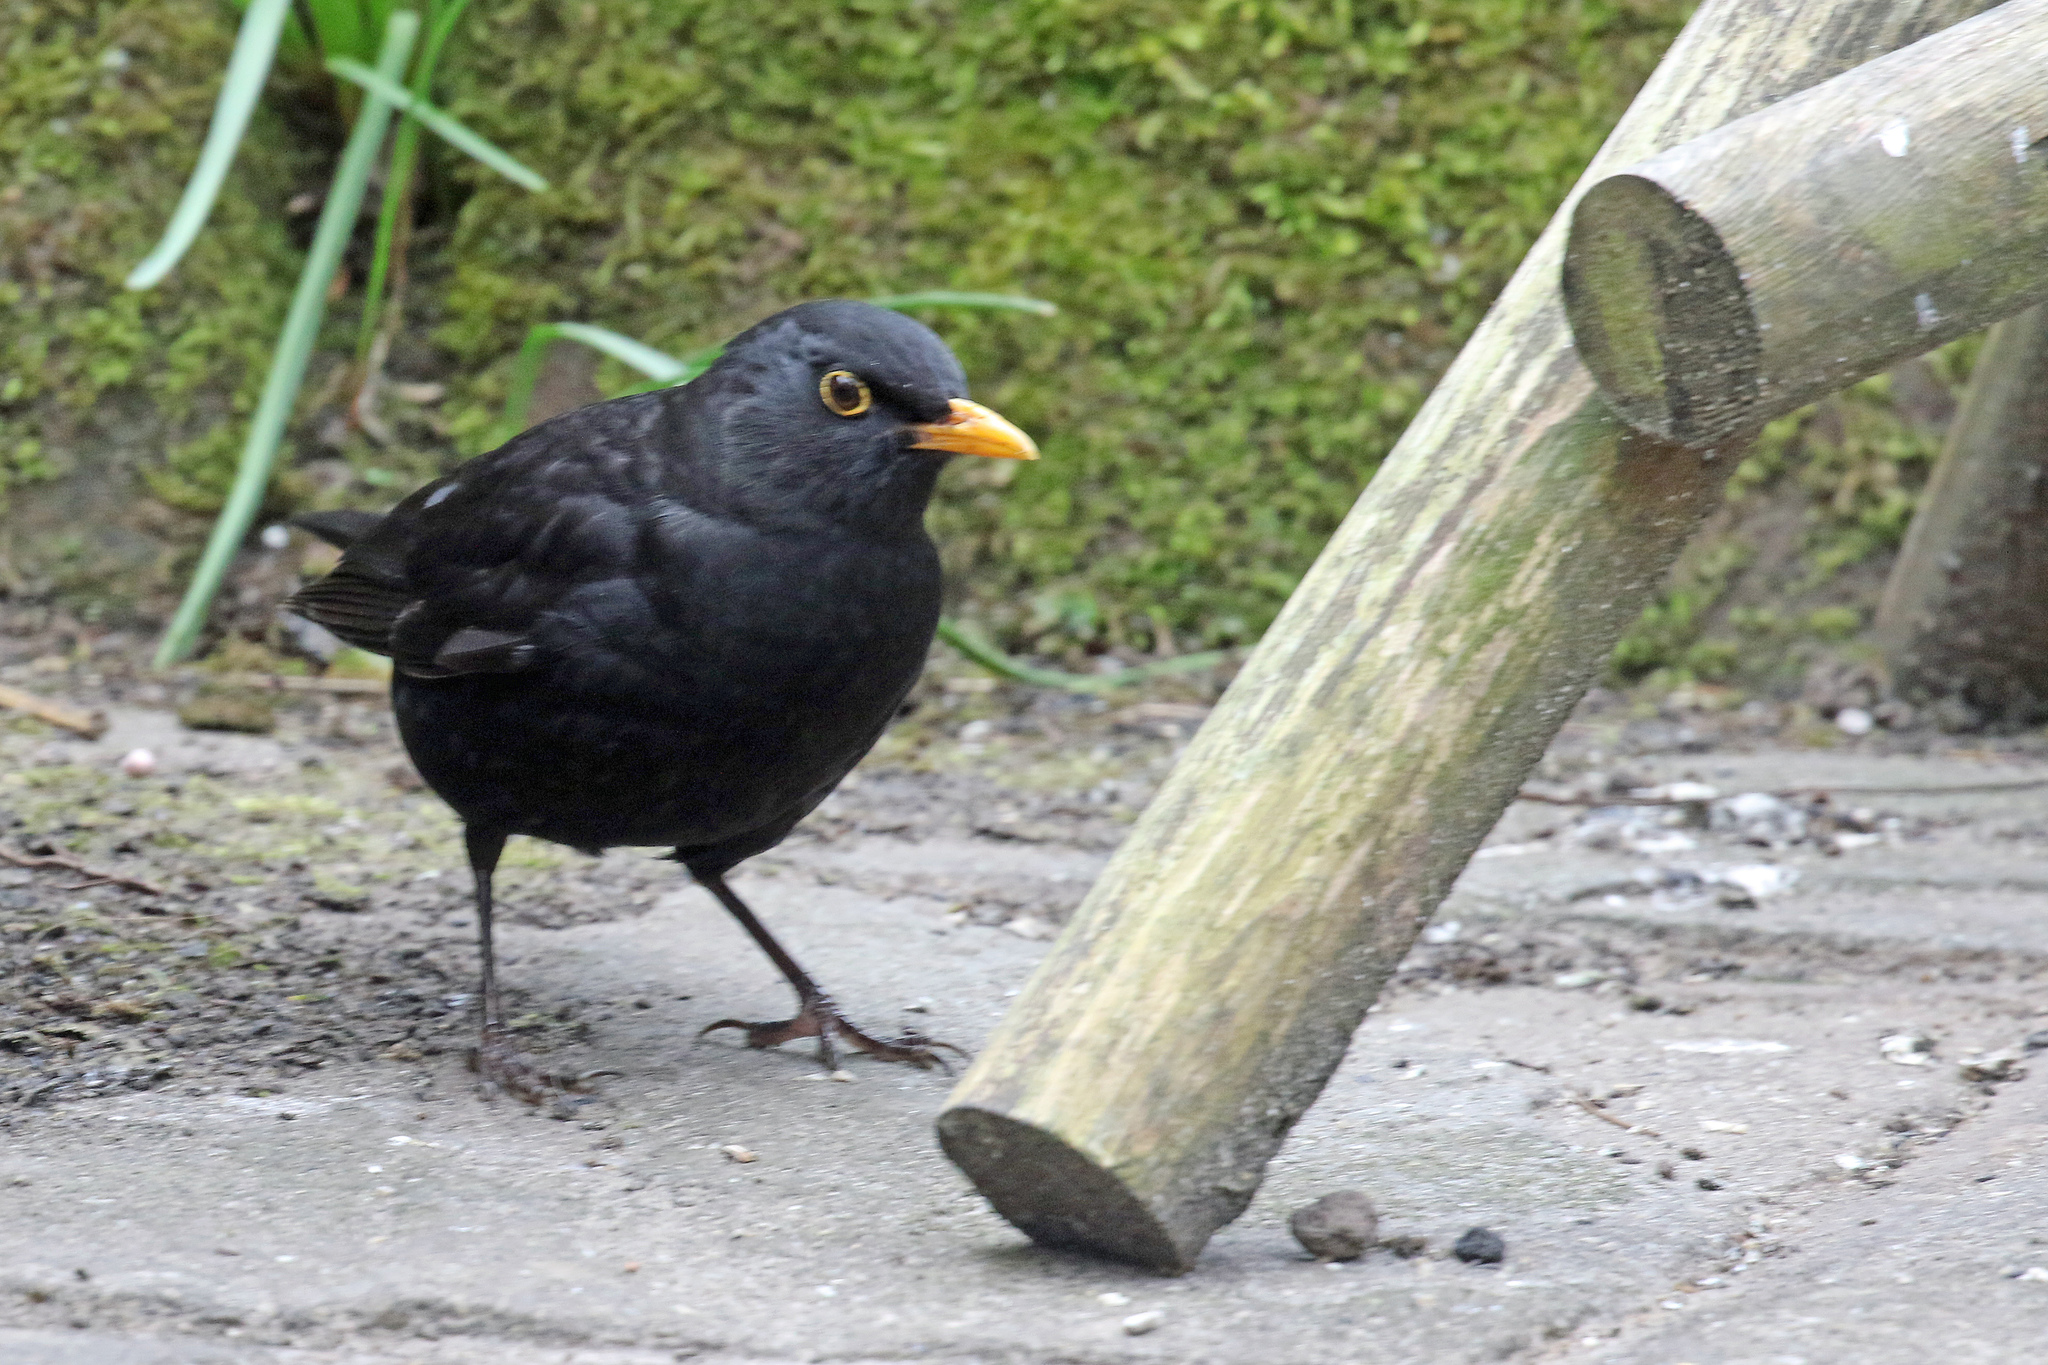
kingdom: Animalia
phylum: Chordata
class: Aves
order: Passeriformes
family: Turdidae
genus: Turdus
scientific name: Turdus merula
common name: Common blackbird
